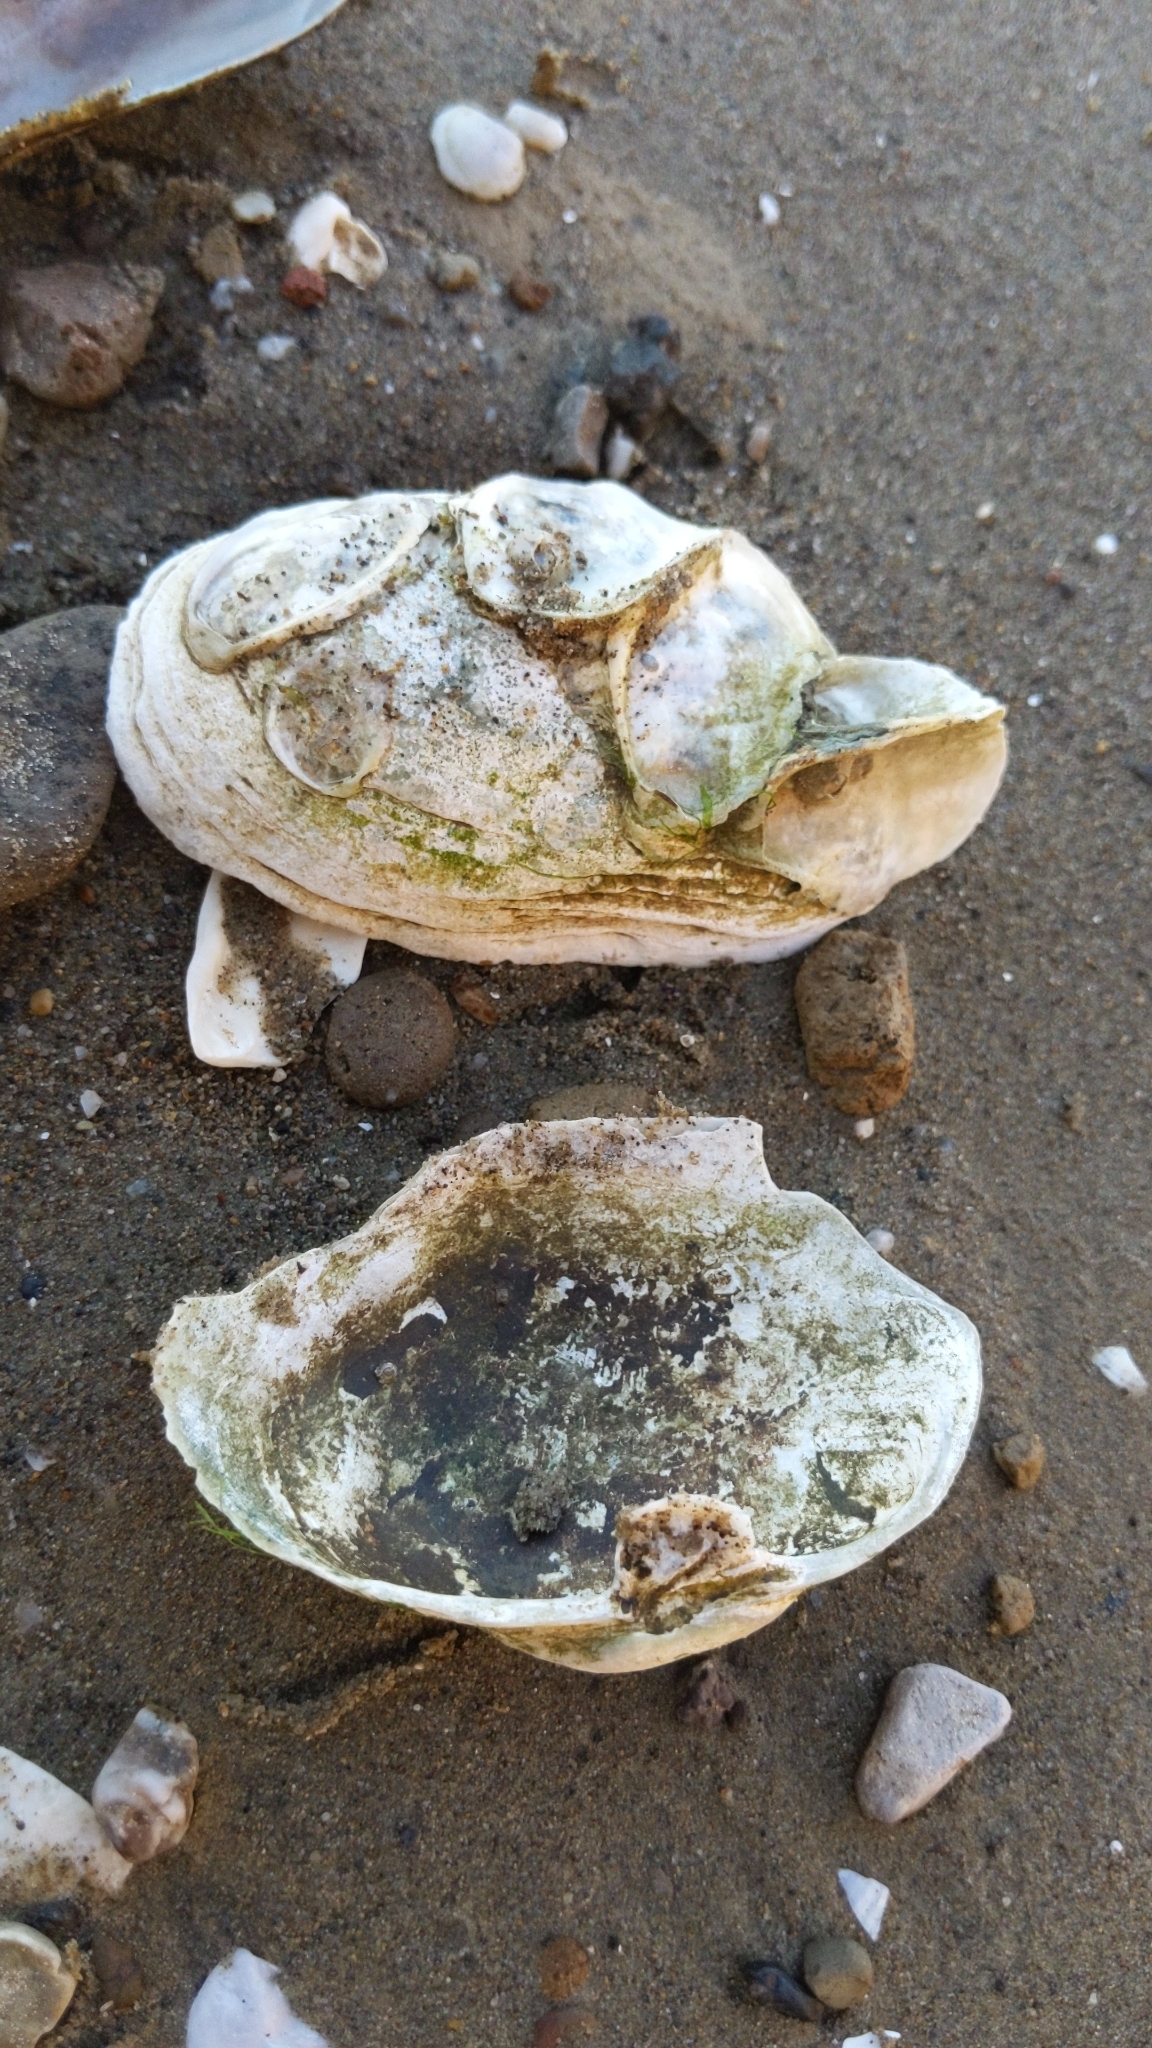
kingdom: Animalia
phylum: Mollusca
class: Bivalvia
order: Myida
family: Myidae
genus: Mya
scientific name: Mya arenaria
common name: Soft-shelled clam
